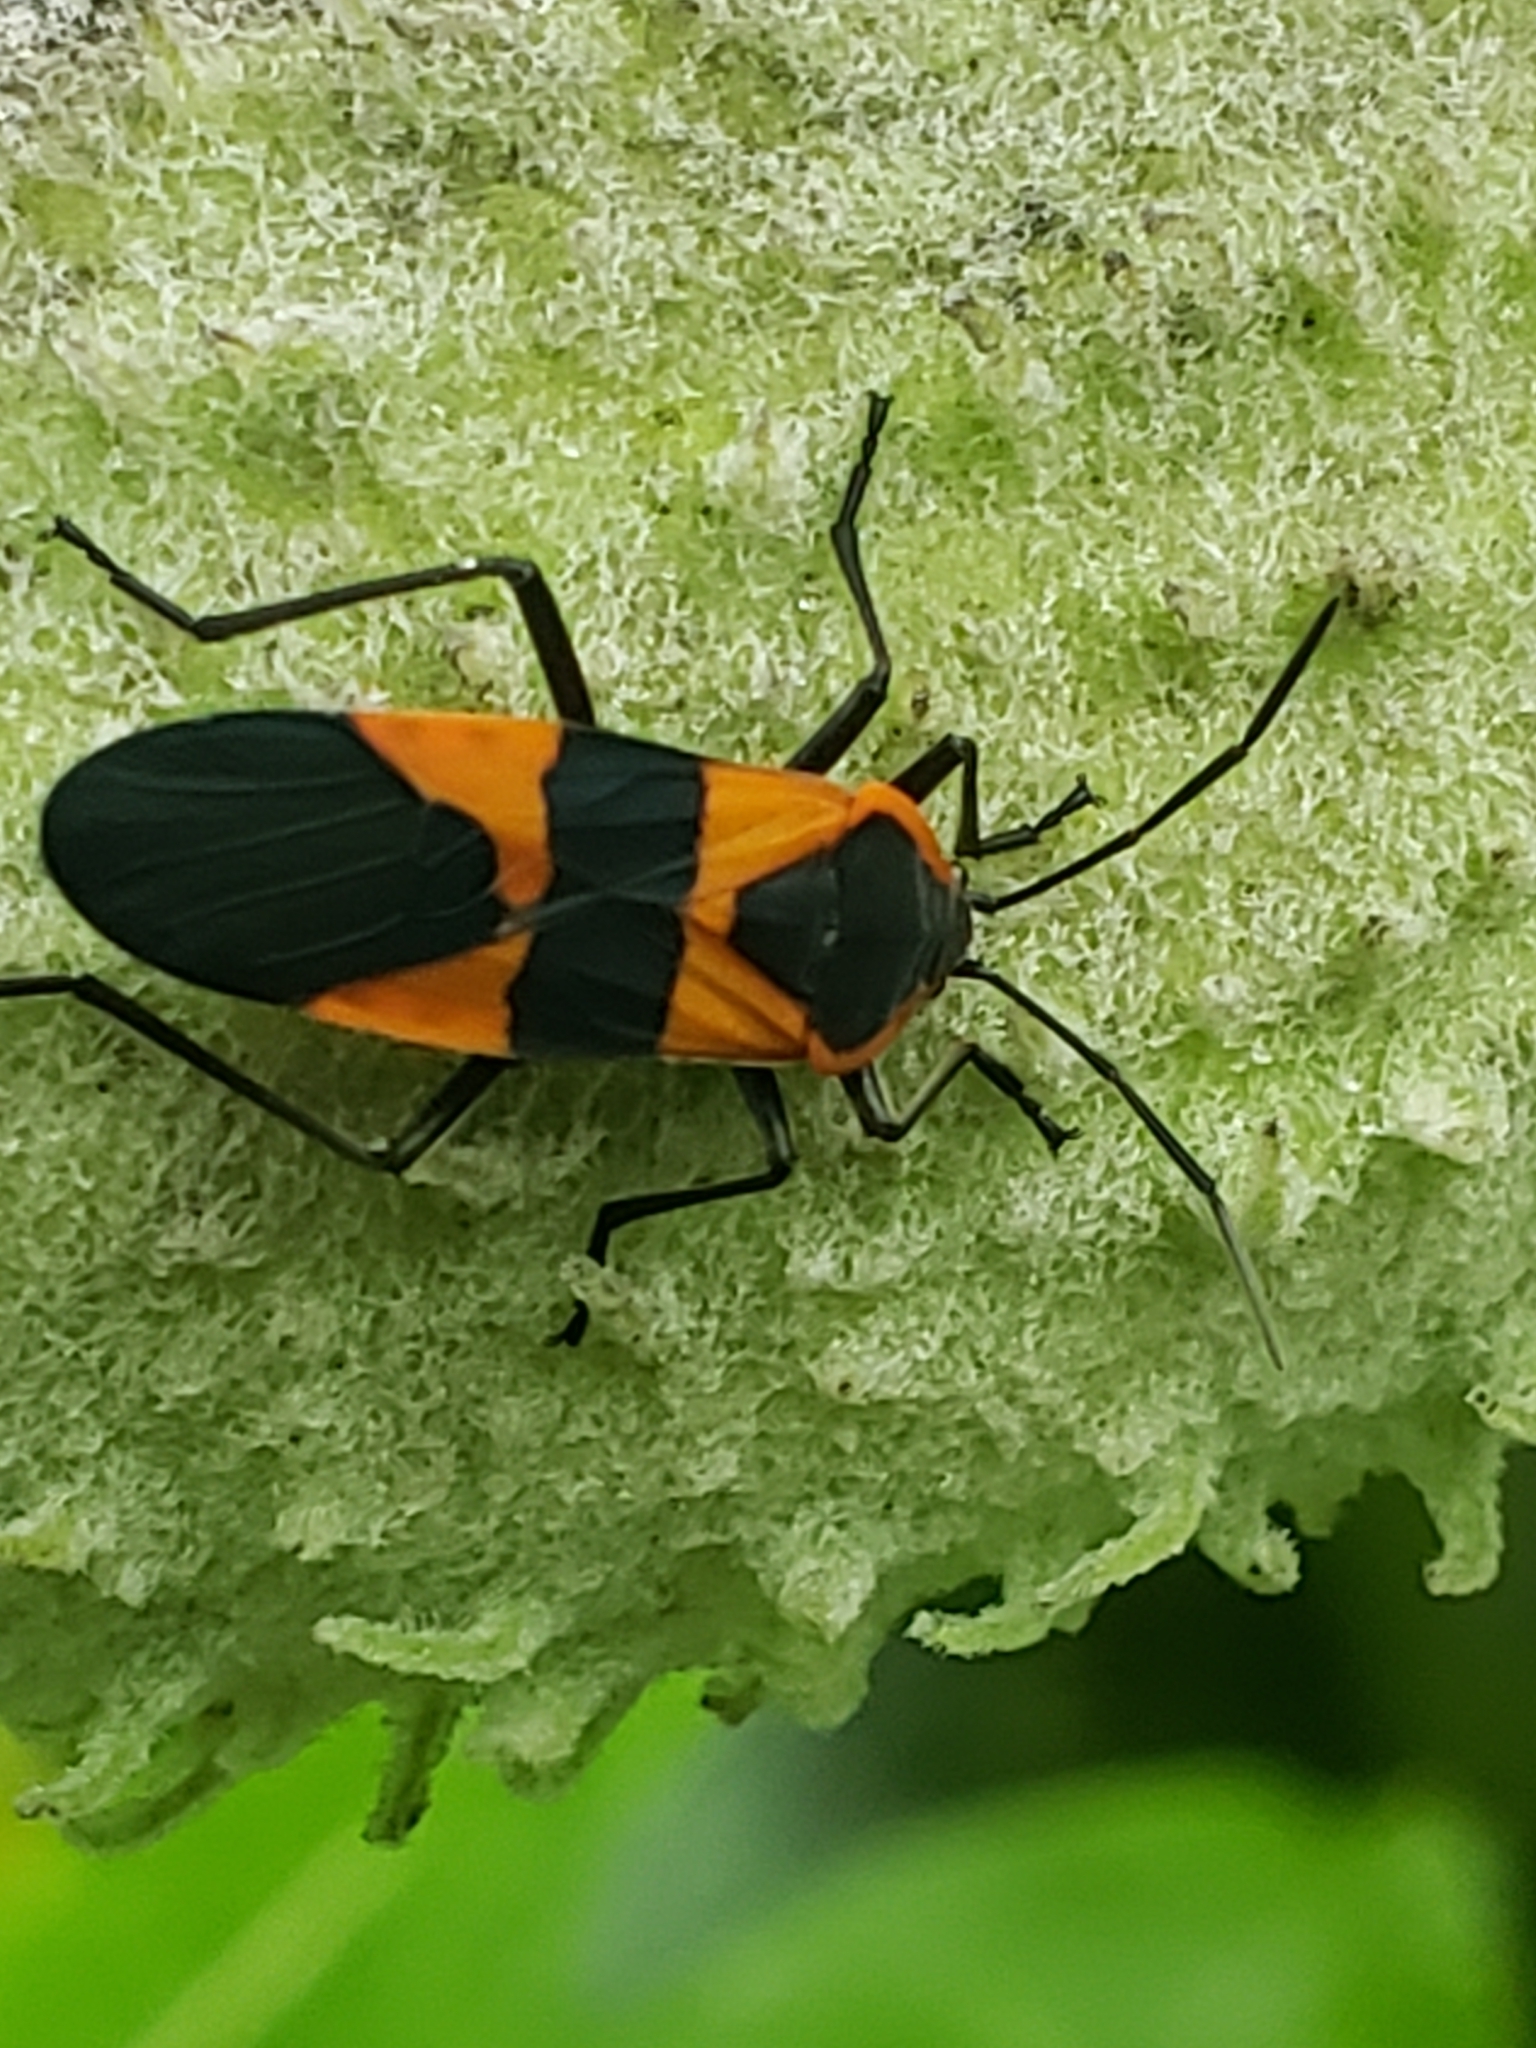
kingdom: Animalia
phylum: Arthropoda
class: Insecta
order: Hemiptera
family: Lygaeidae
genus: Oncopeltus
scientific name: Oncopeltus fasciatus
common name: Large milkweed bug
